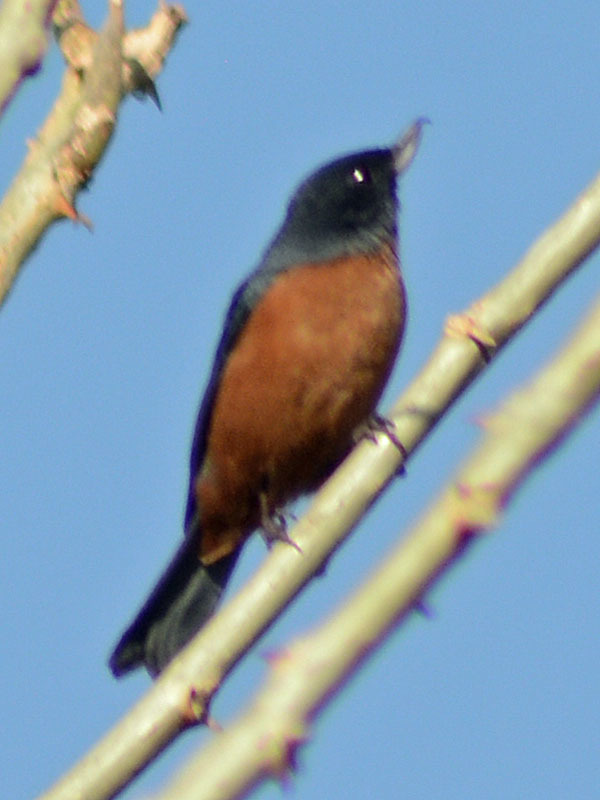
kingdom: Animalia
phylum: Chordata
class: Aves
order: Passeriformes
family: Thraupidae
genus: Diglossa
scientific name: Diglossa baritula
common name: Cinnamon-bellied flowerpiercer
